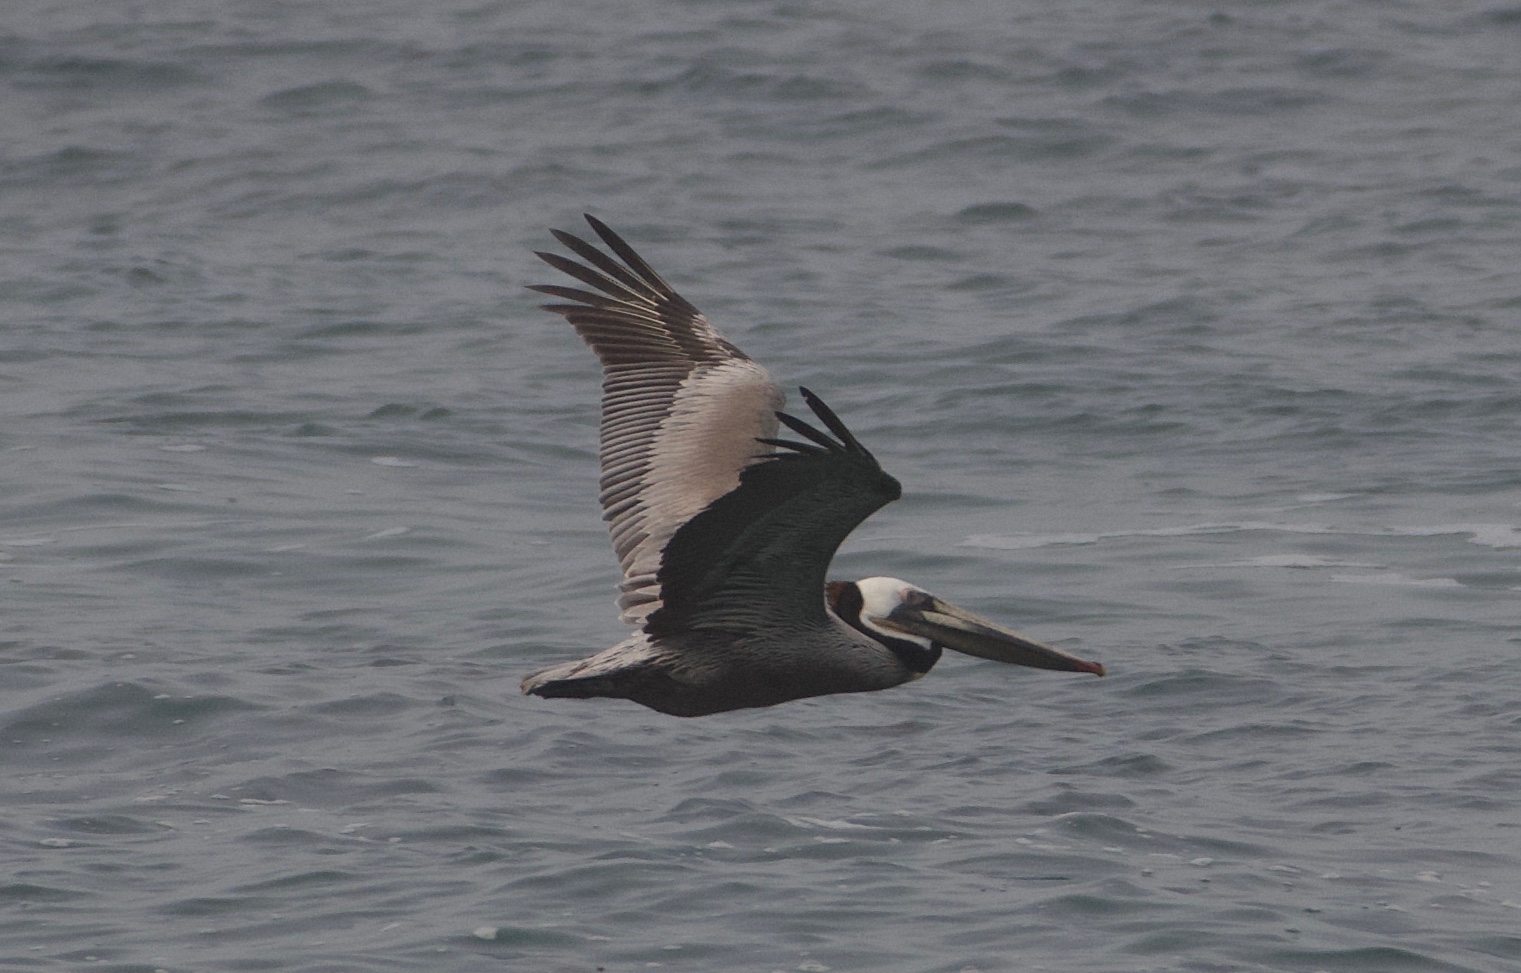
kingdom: Animalia
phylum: Chordata
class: Aves
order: Pelecaniformes
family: Pelecanidae
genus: Pelecanus
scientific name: Pelecanus occidentalis
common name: Brown pelican
